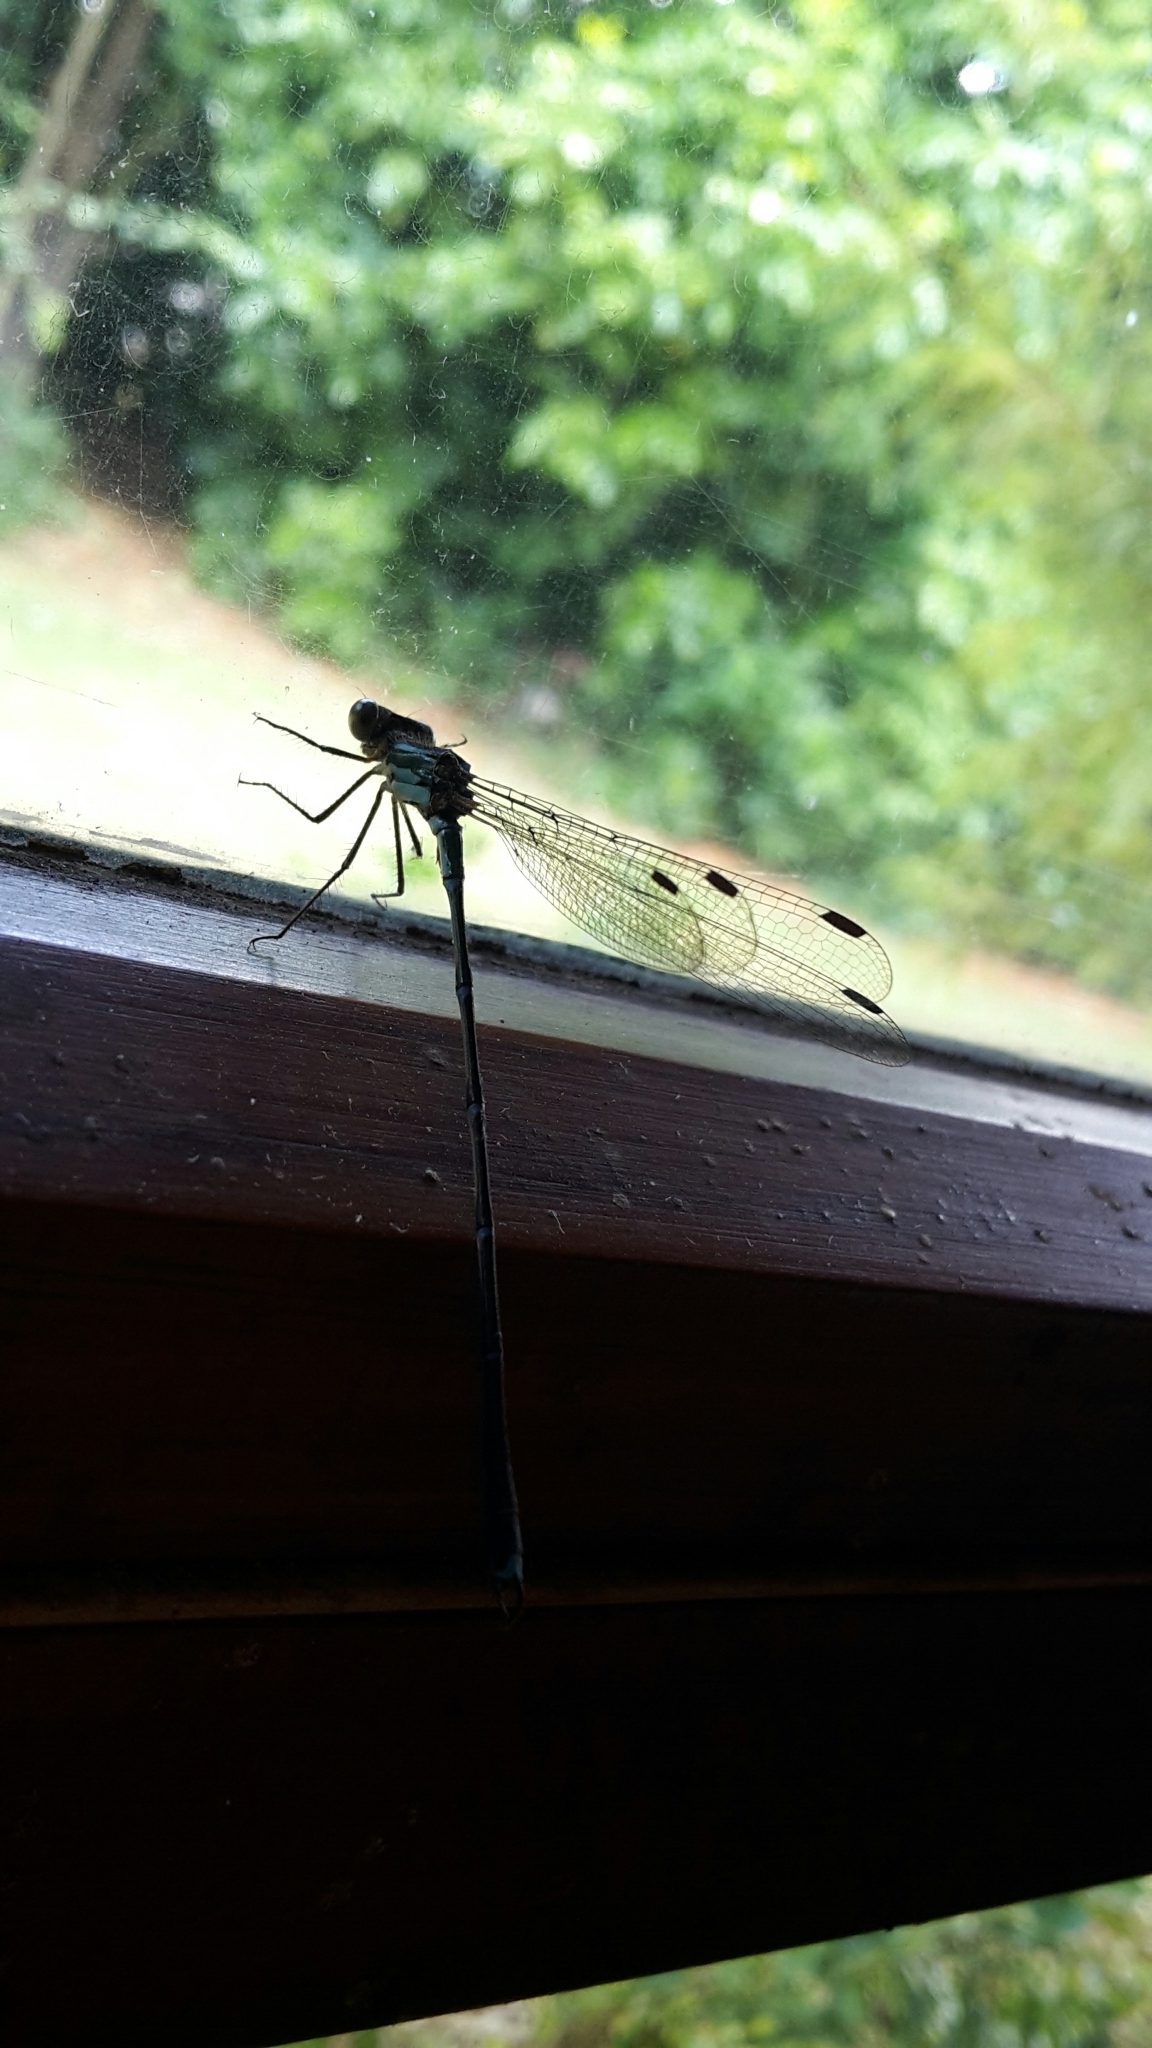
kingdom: Animalia
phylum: Arthropoda
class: Insecta
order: Odonata
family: Lestidae
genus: Austrolestes
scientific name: Austrolestes colensonis
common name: Blue damselfly
